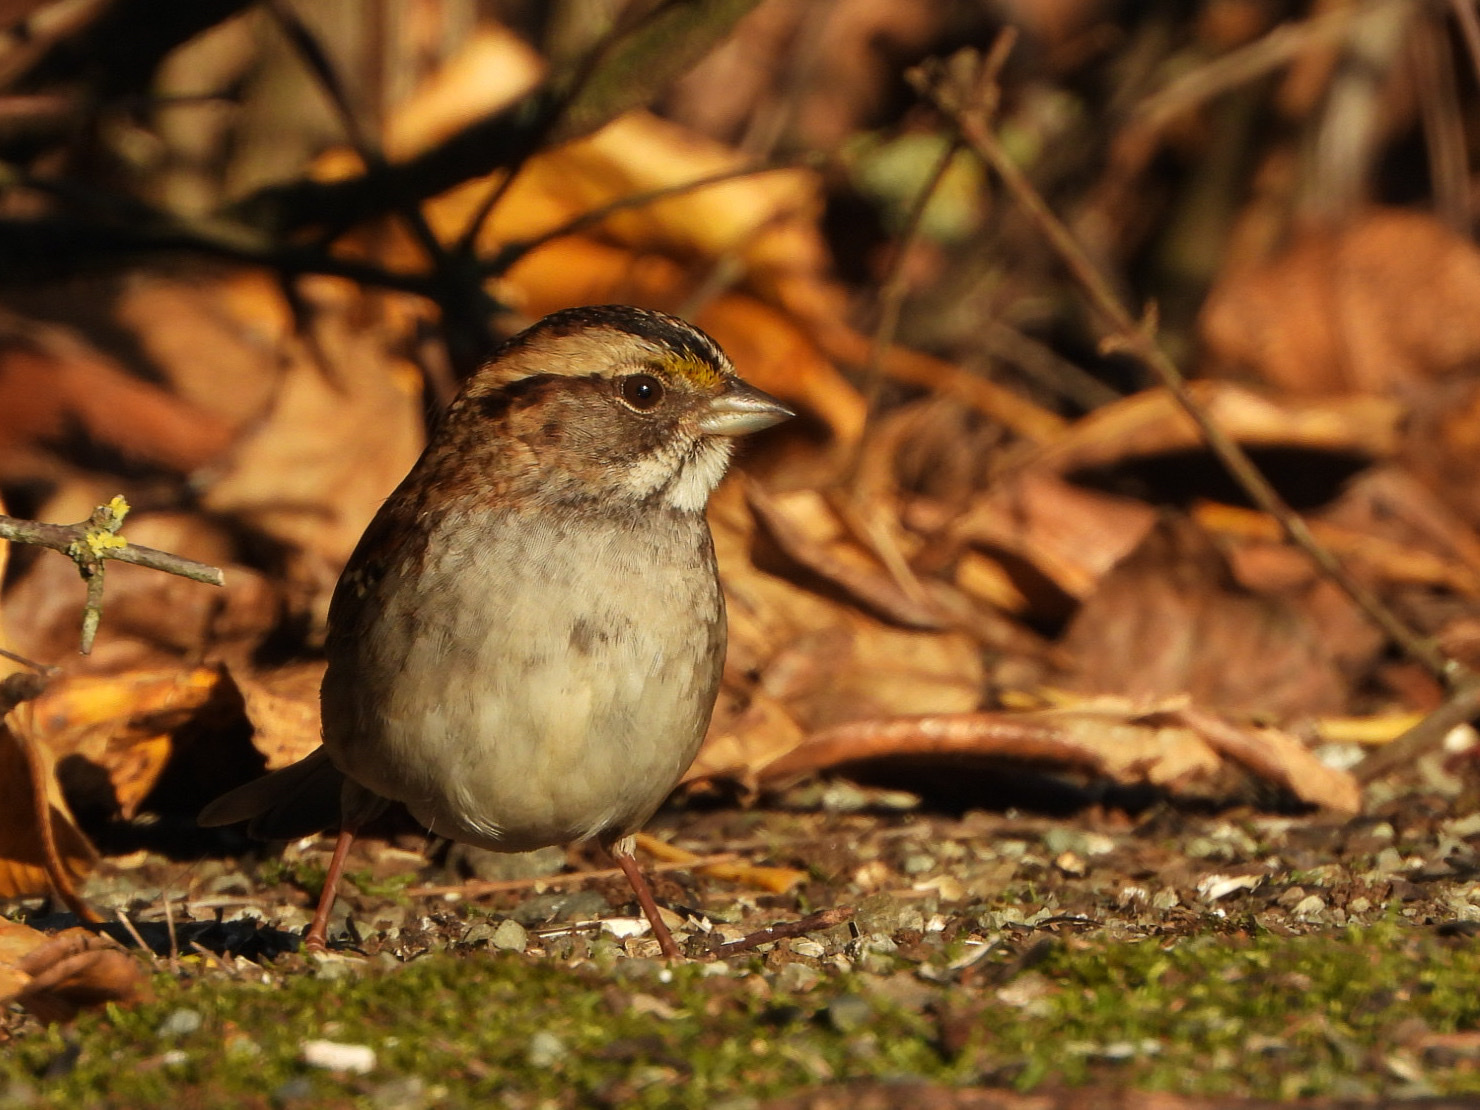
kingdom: Animalia
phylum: Chordata
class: Aves
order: Passeriformes
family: Passerellidae
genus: Zonotrichia
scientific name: Zonotrichia albicollis
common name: White-throated sparrow
